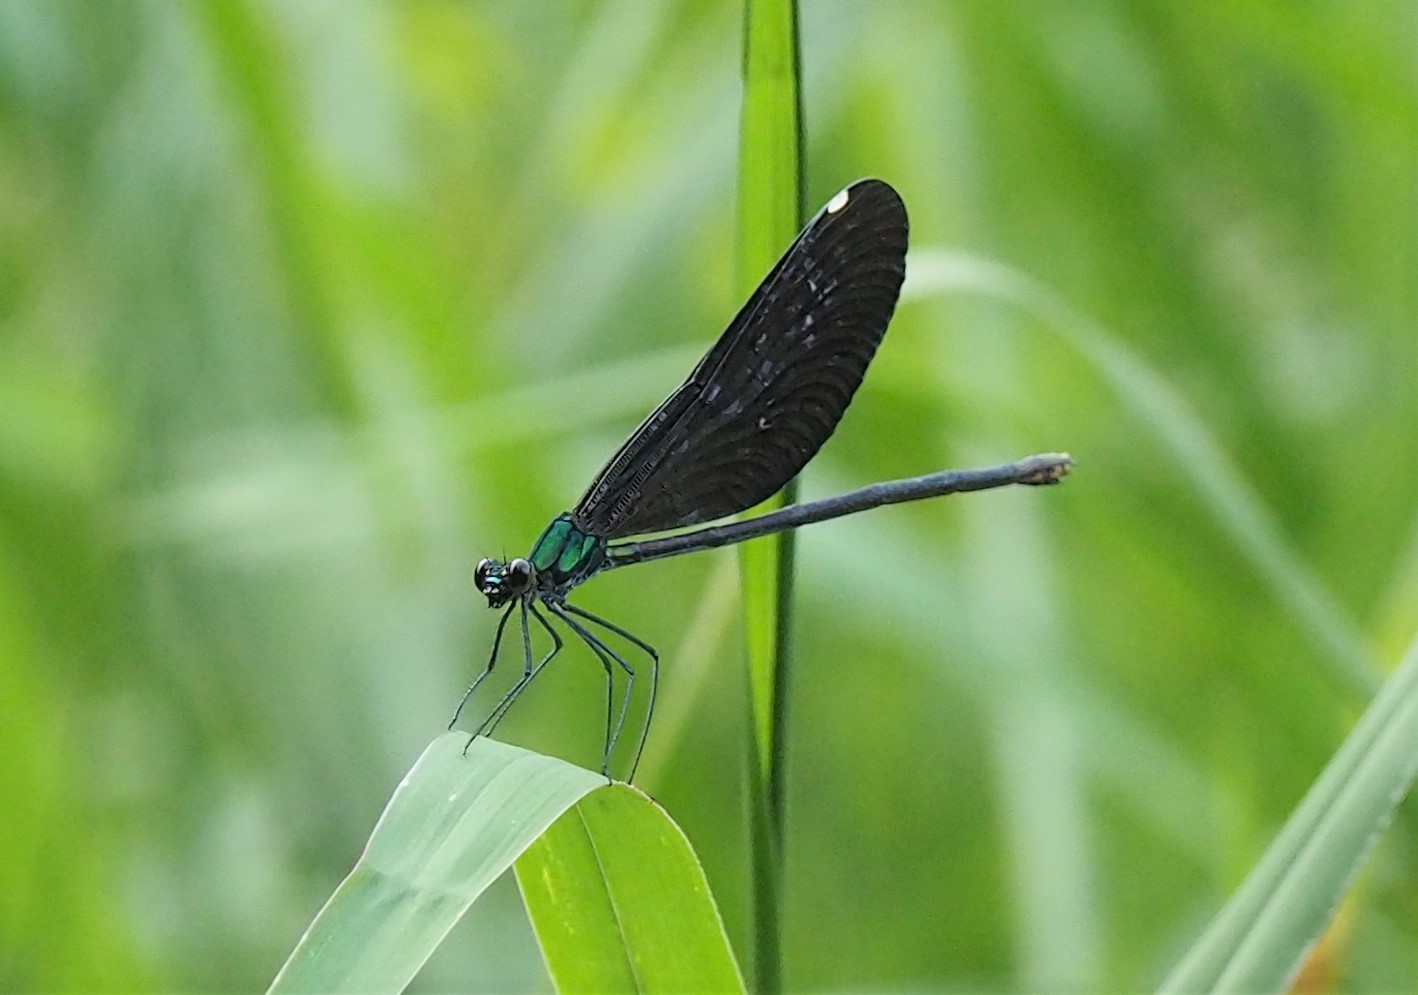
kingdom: Animalia
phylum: Arthropoda
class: Insecta
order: Odonata
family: Calopterygidae
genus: Matrona
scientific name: Matrona cyanoptera
